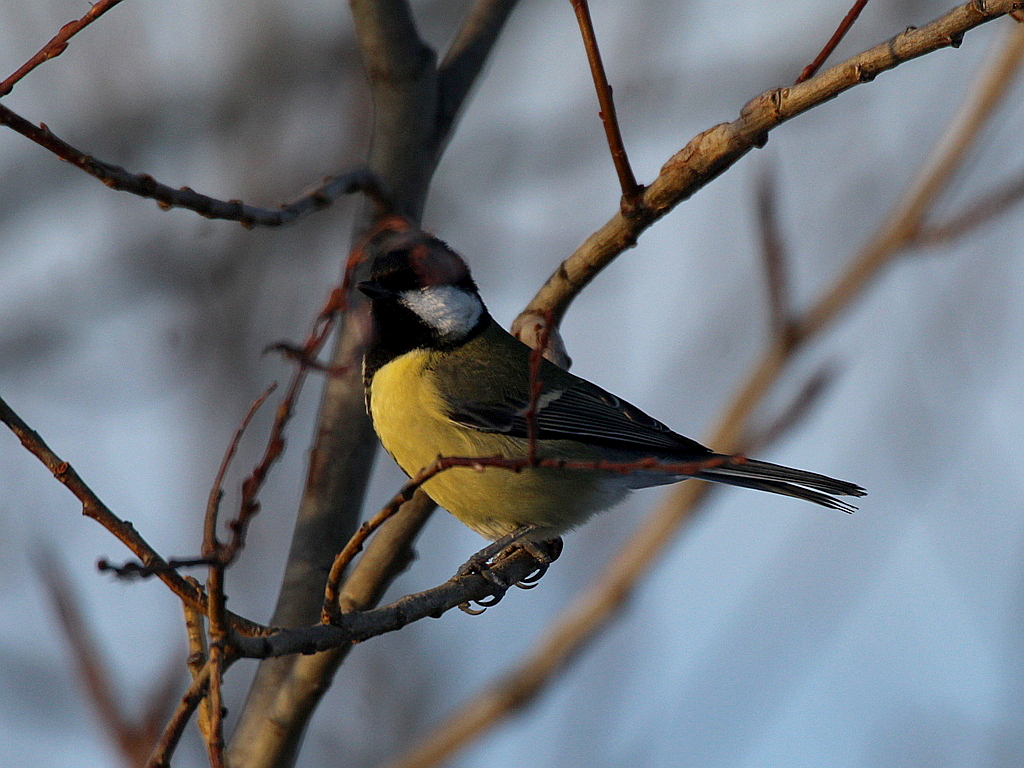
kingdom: Animalia
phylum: Chordata
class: Aves
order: Passeriformes
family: Paridae
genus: Parus
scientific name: Parus major
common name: Great tit
